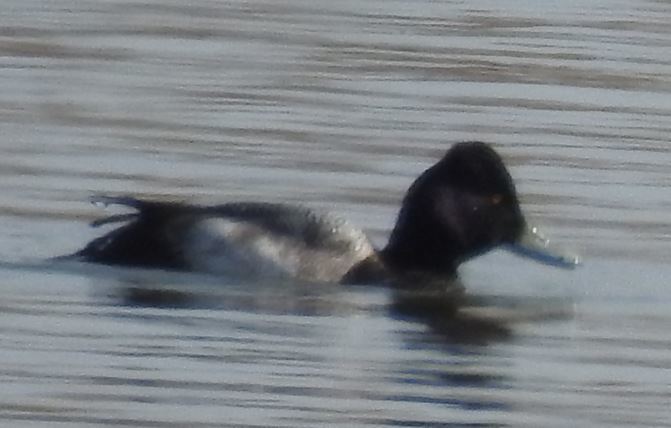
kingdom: Animalia
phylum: Chordata
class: Aves
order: Anseriformes
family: Anatidae
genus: Aythya
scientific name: Aythya affinis
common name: Lesser scaup
